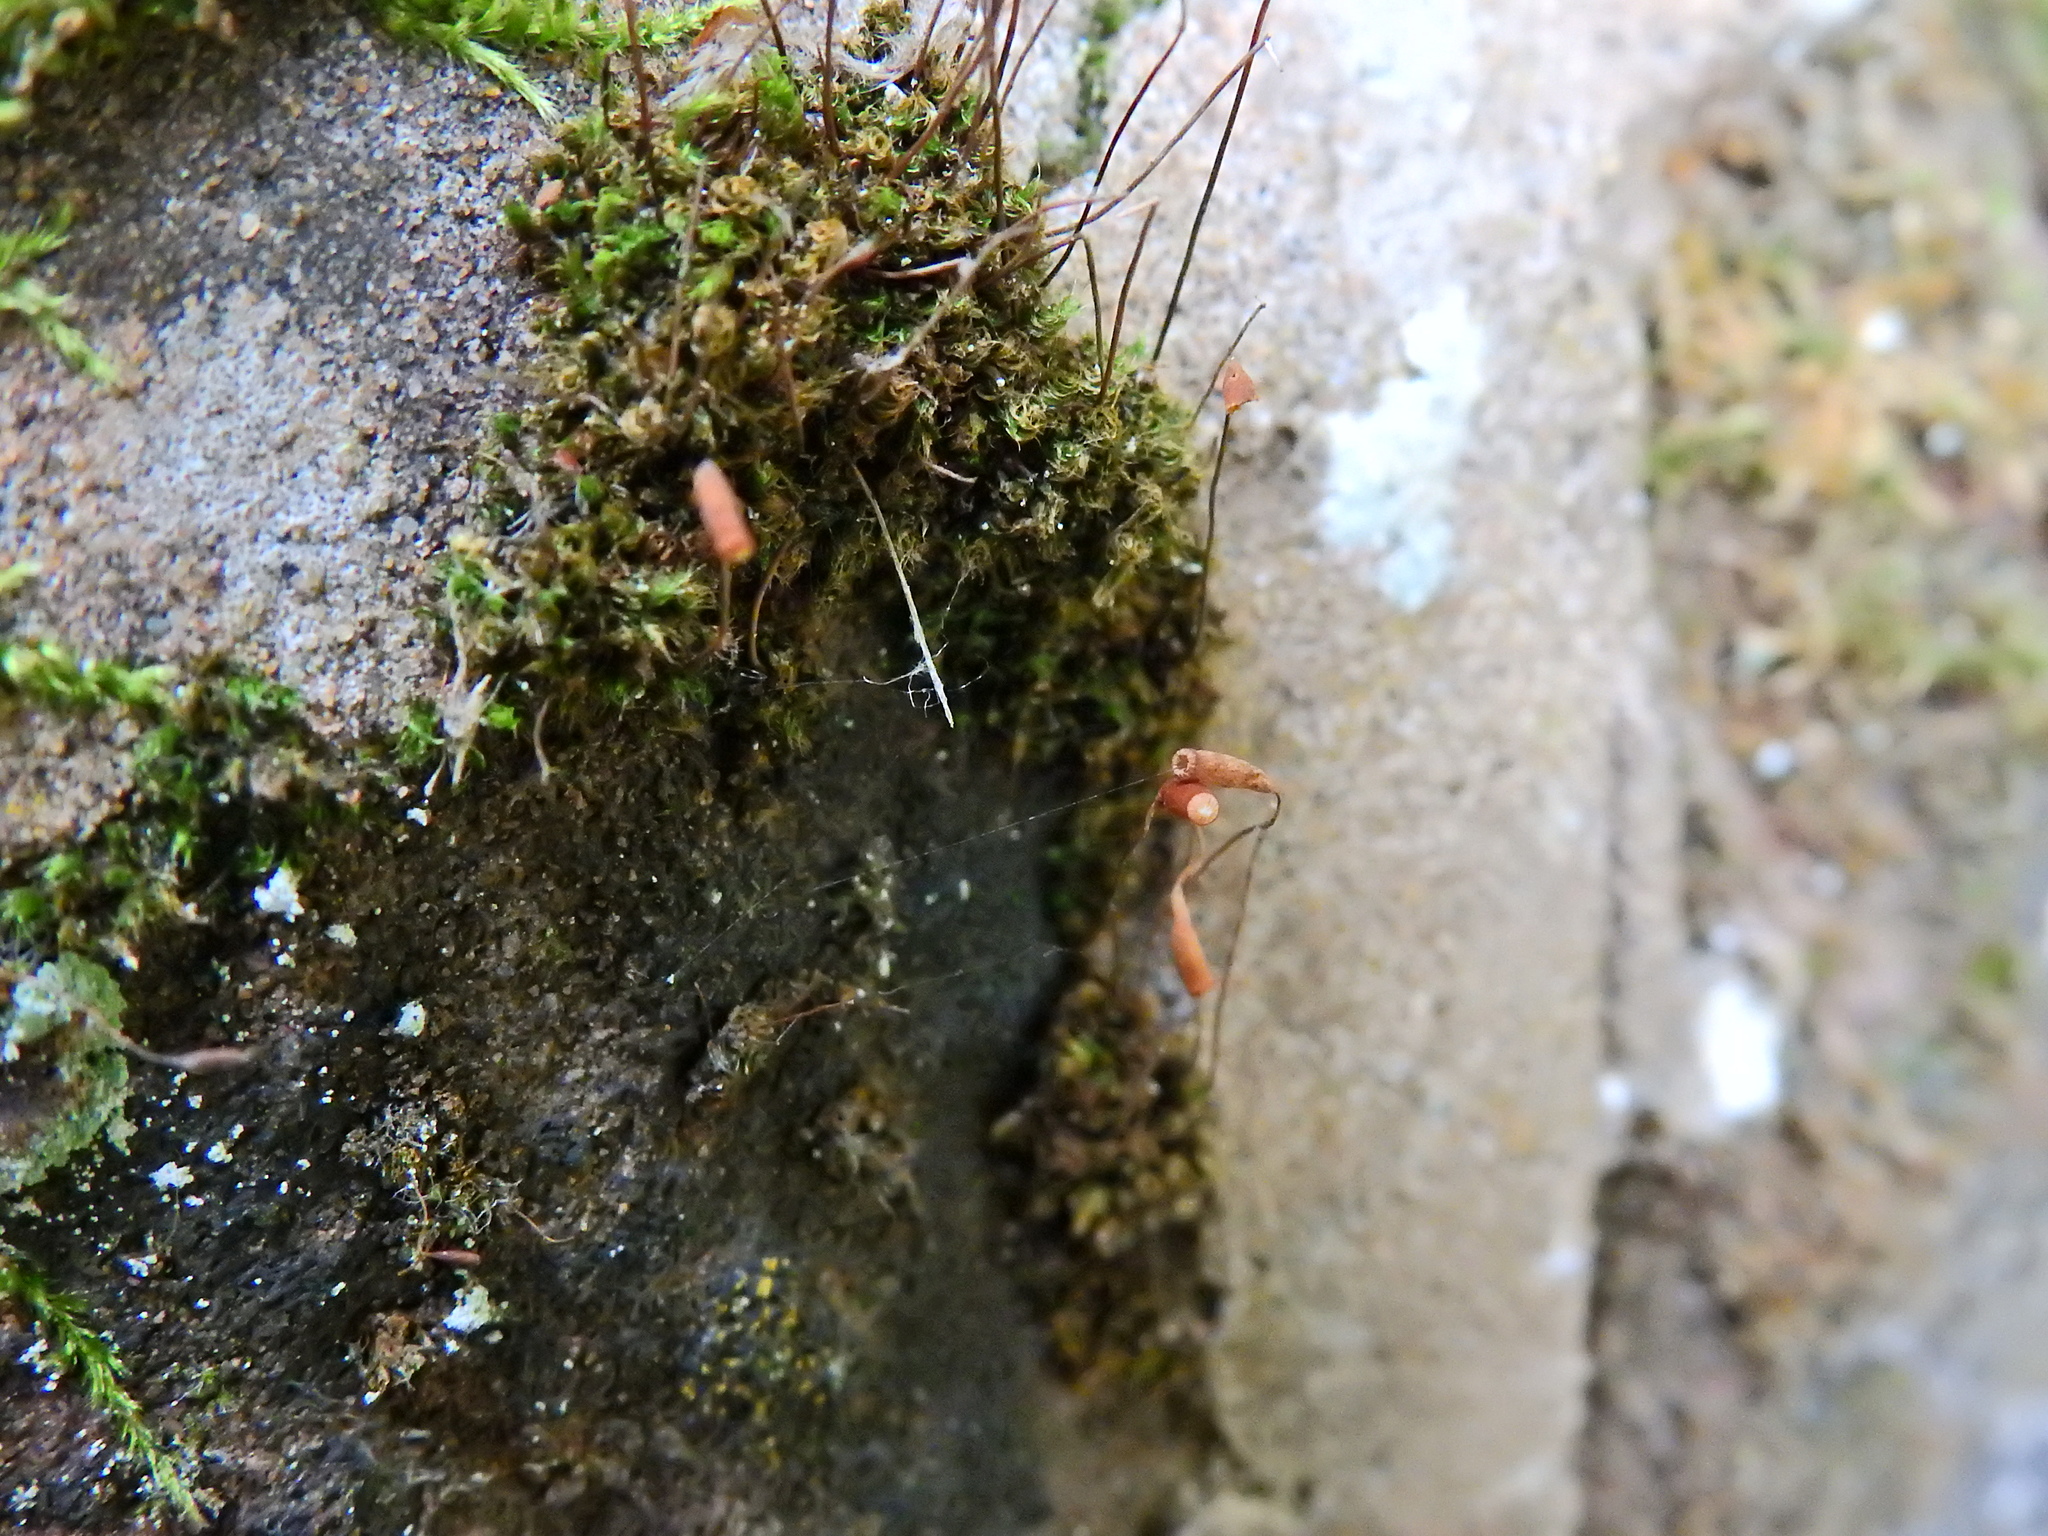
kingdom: Plantae
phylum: Bryophyta
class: Bryopsida
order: Bryales
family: Bryaceae
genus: Rosulabryum
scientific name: Rosulabryum capillare
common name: Capillary thread-moss
